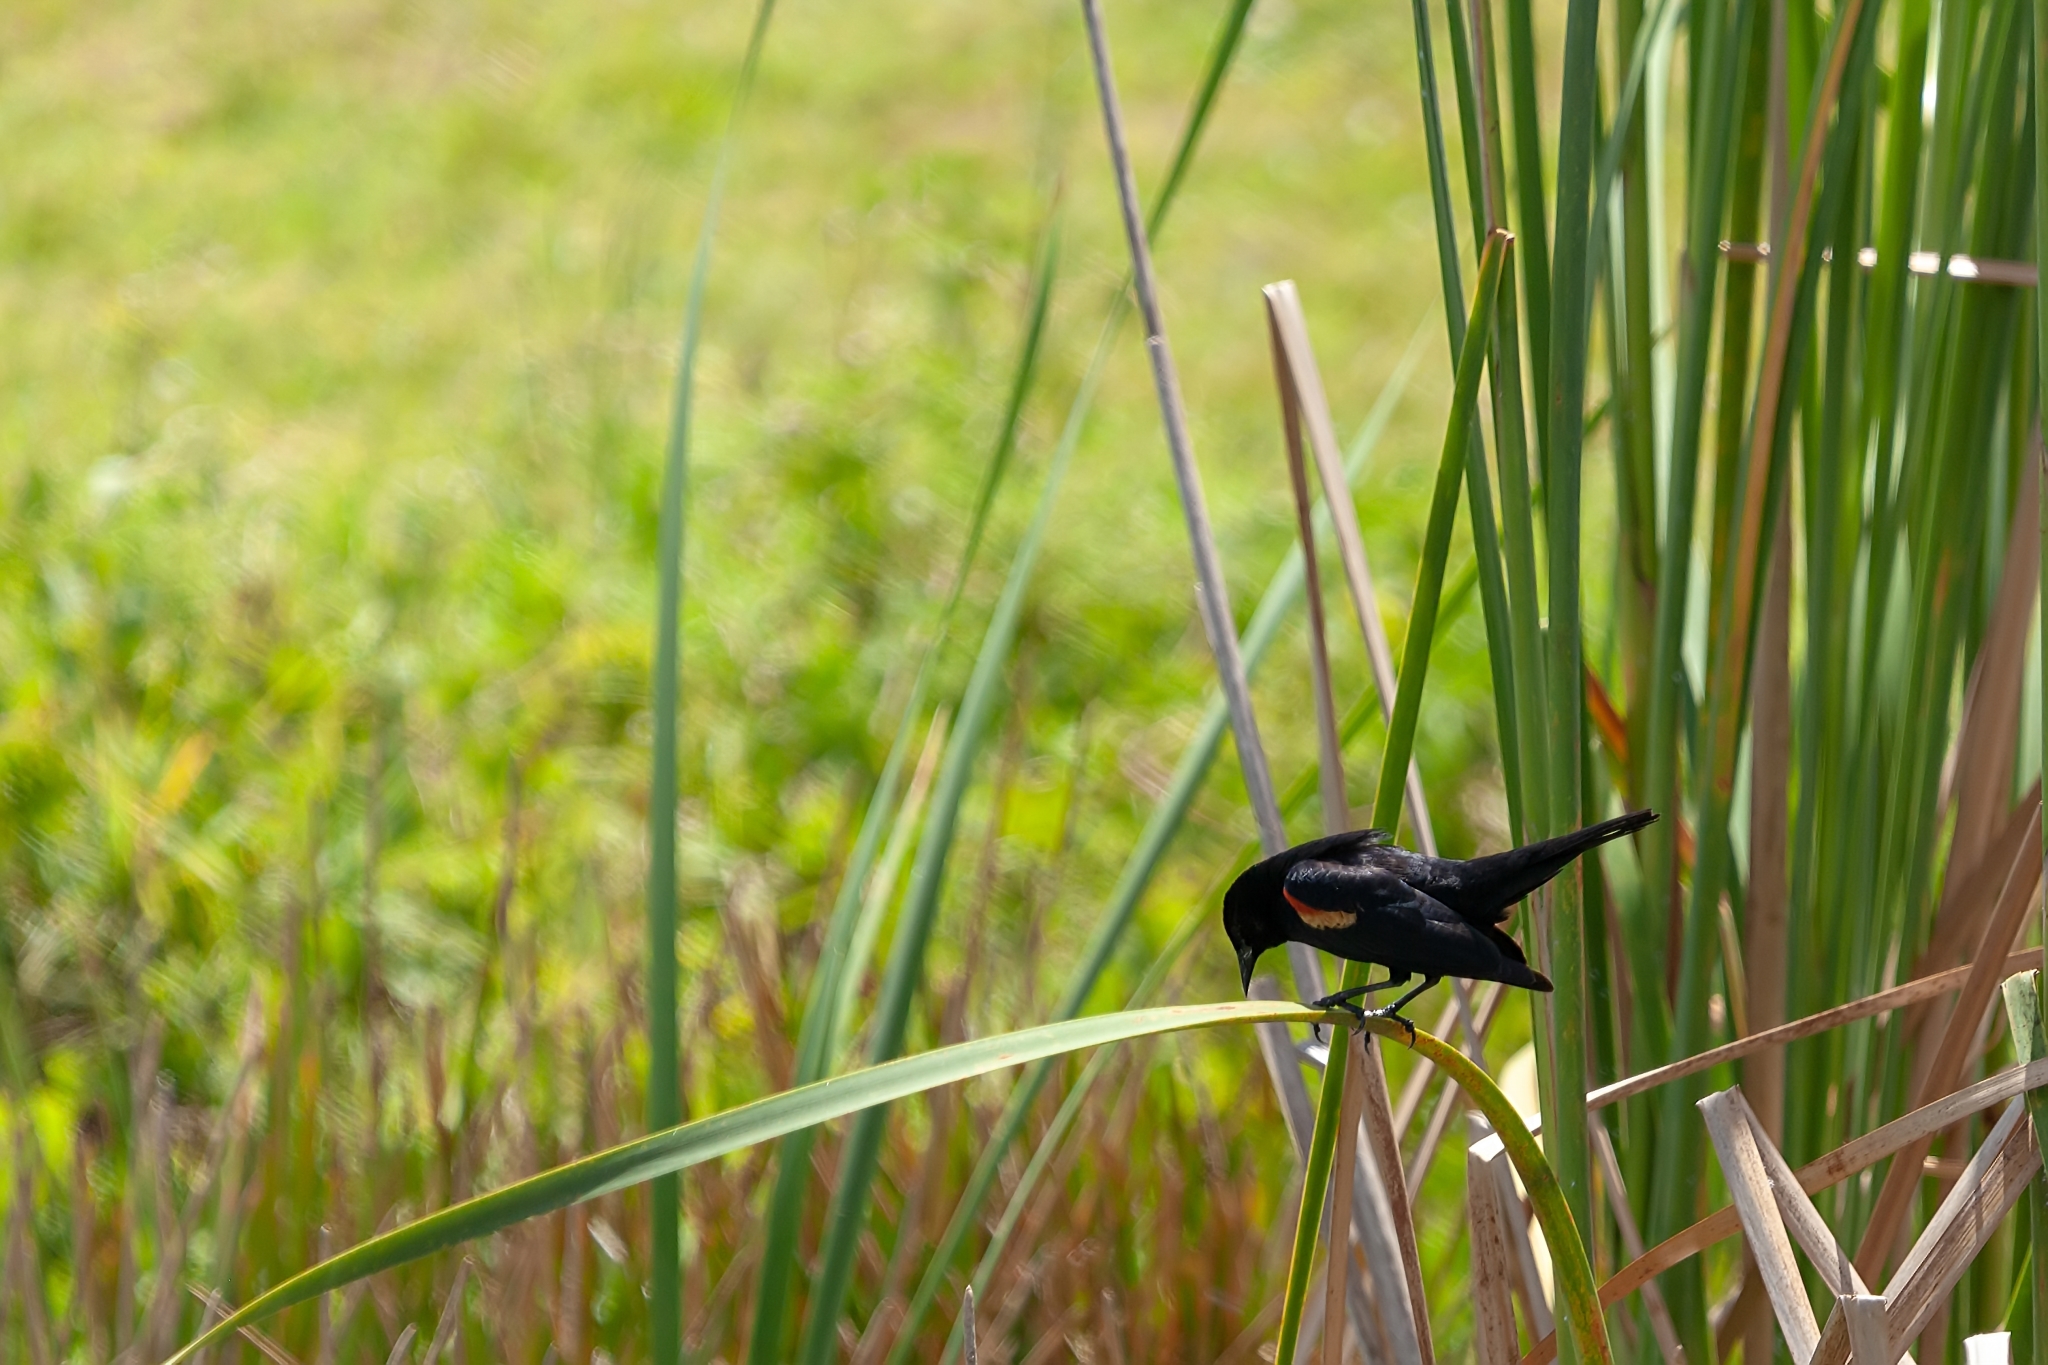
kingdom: Animalia
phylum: Chordata
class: Aves
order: Passeriformes
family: Icteridae
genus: Agelaius
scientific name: Agelaius phoeniceus
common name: Red-winged blackbird
